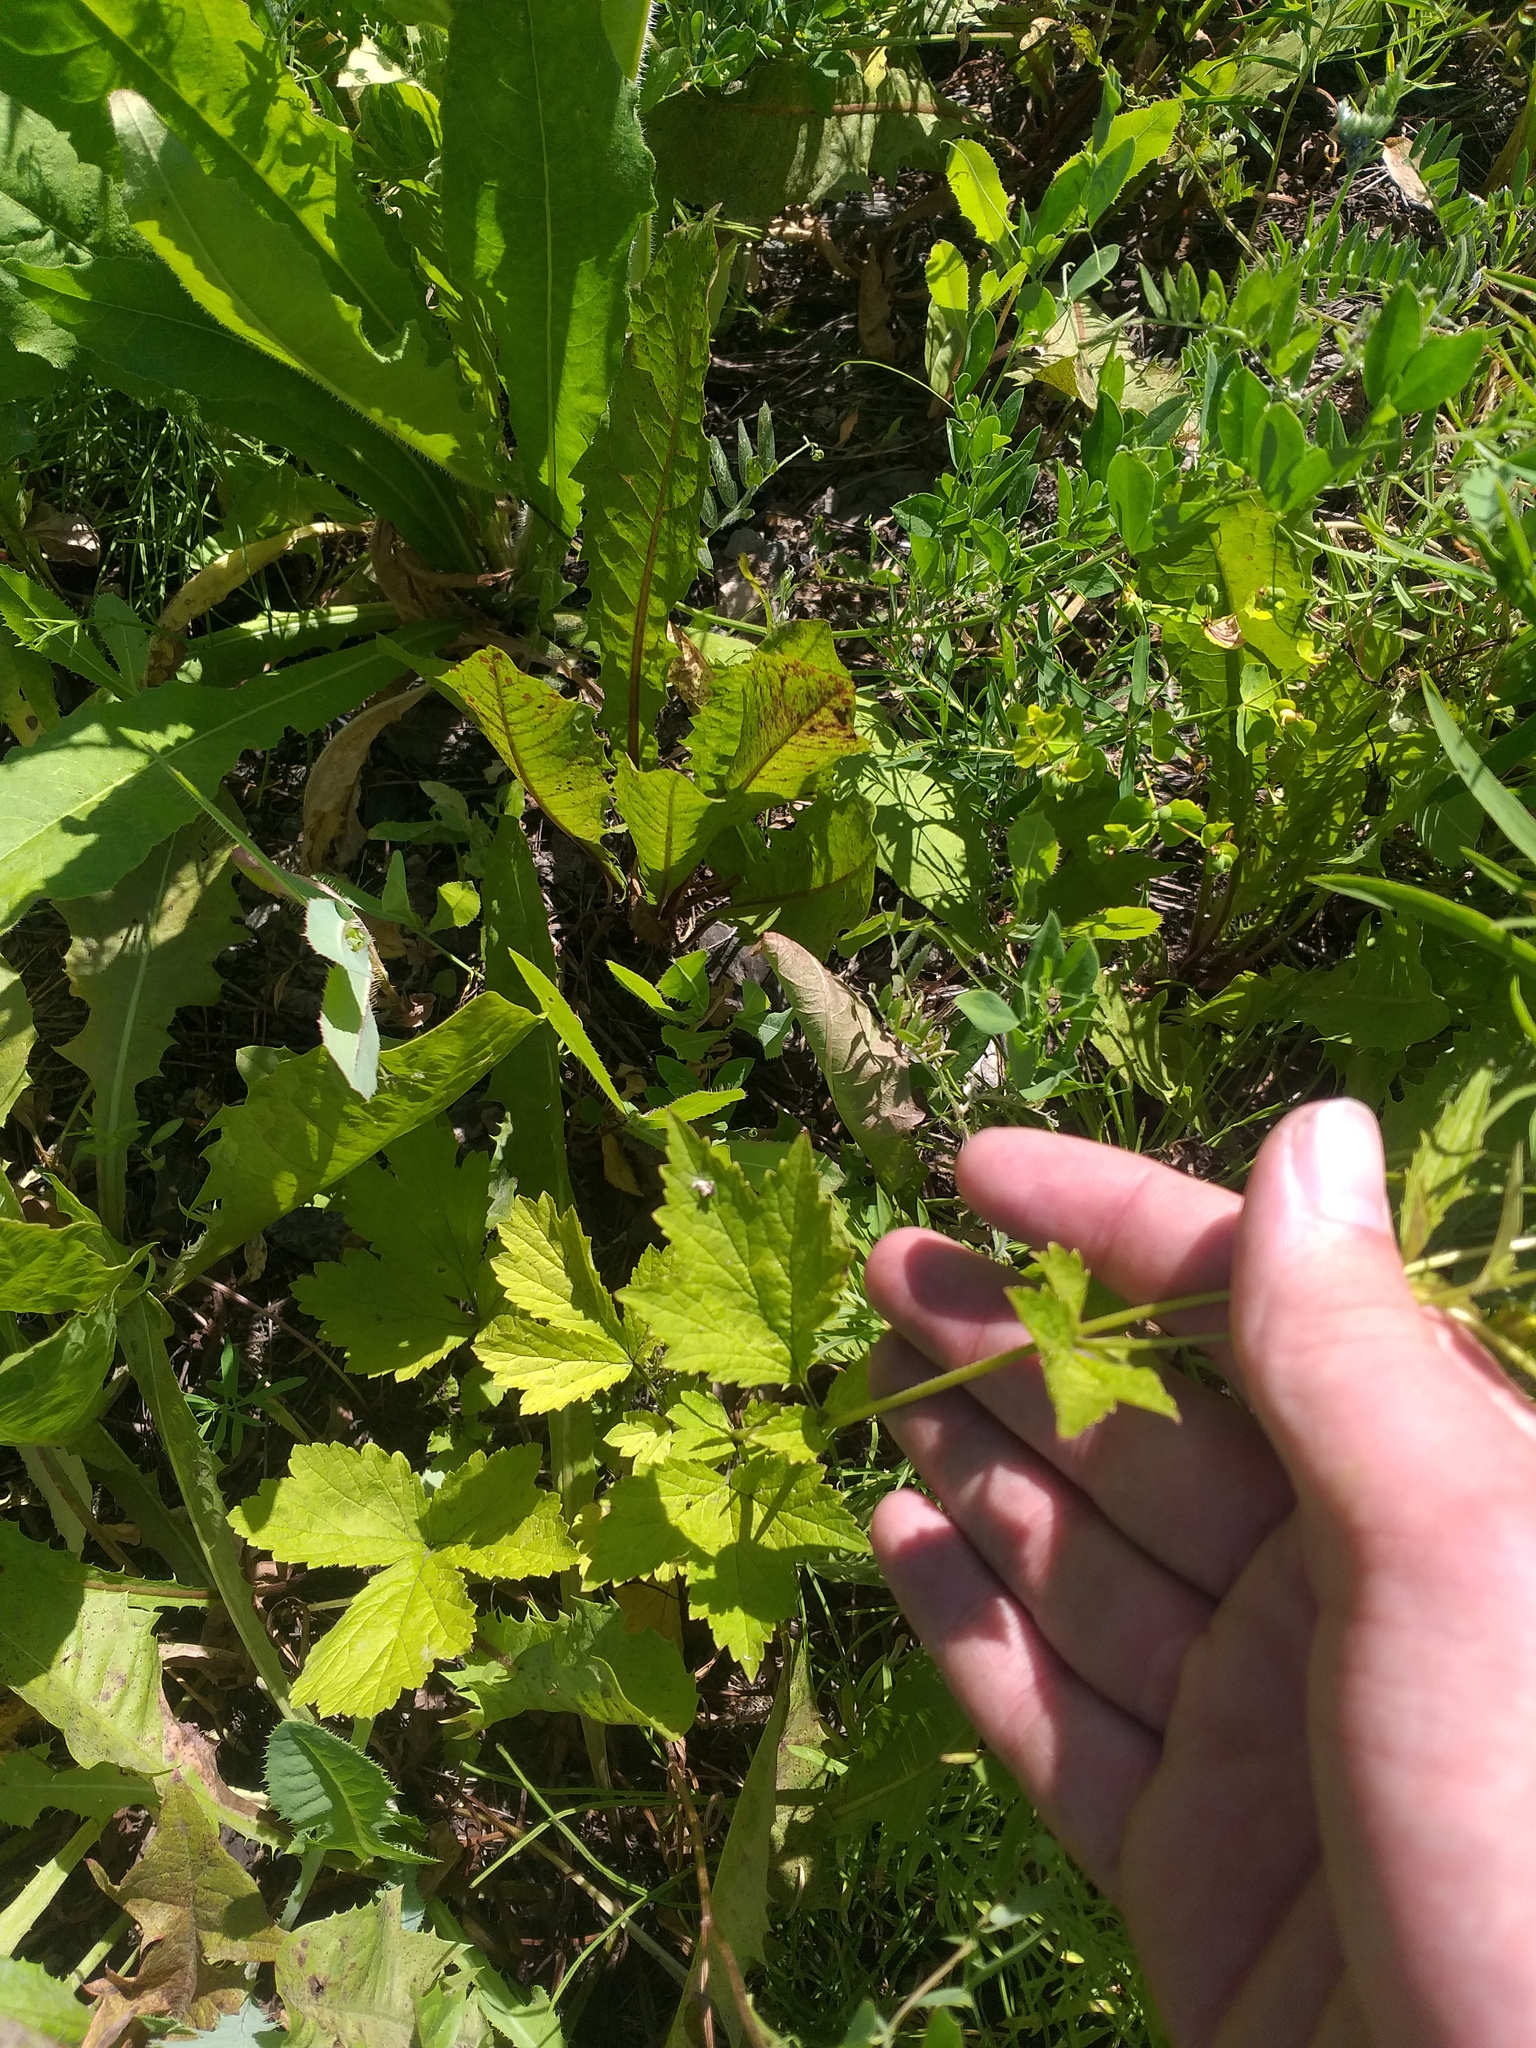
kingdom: Plantae
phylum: Tracheophyta
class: Magnoliopsida
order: Rosales
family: Rosaceae
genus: Geum
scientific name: Geum urbanum
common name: Wood avens
